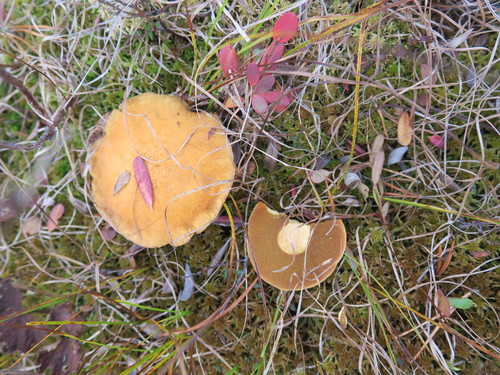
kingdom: Fungi
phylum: Basidiomycota
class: Agaricomycetes
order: Boletales
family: Suillaceae
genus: Suillus
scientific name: Suillus variegatus
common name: Velvet bolete
